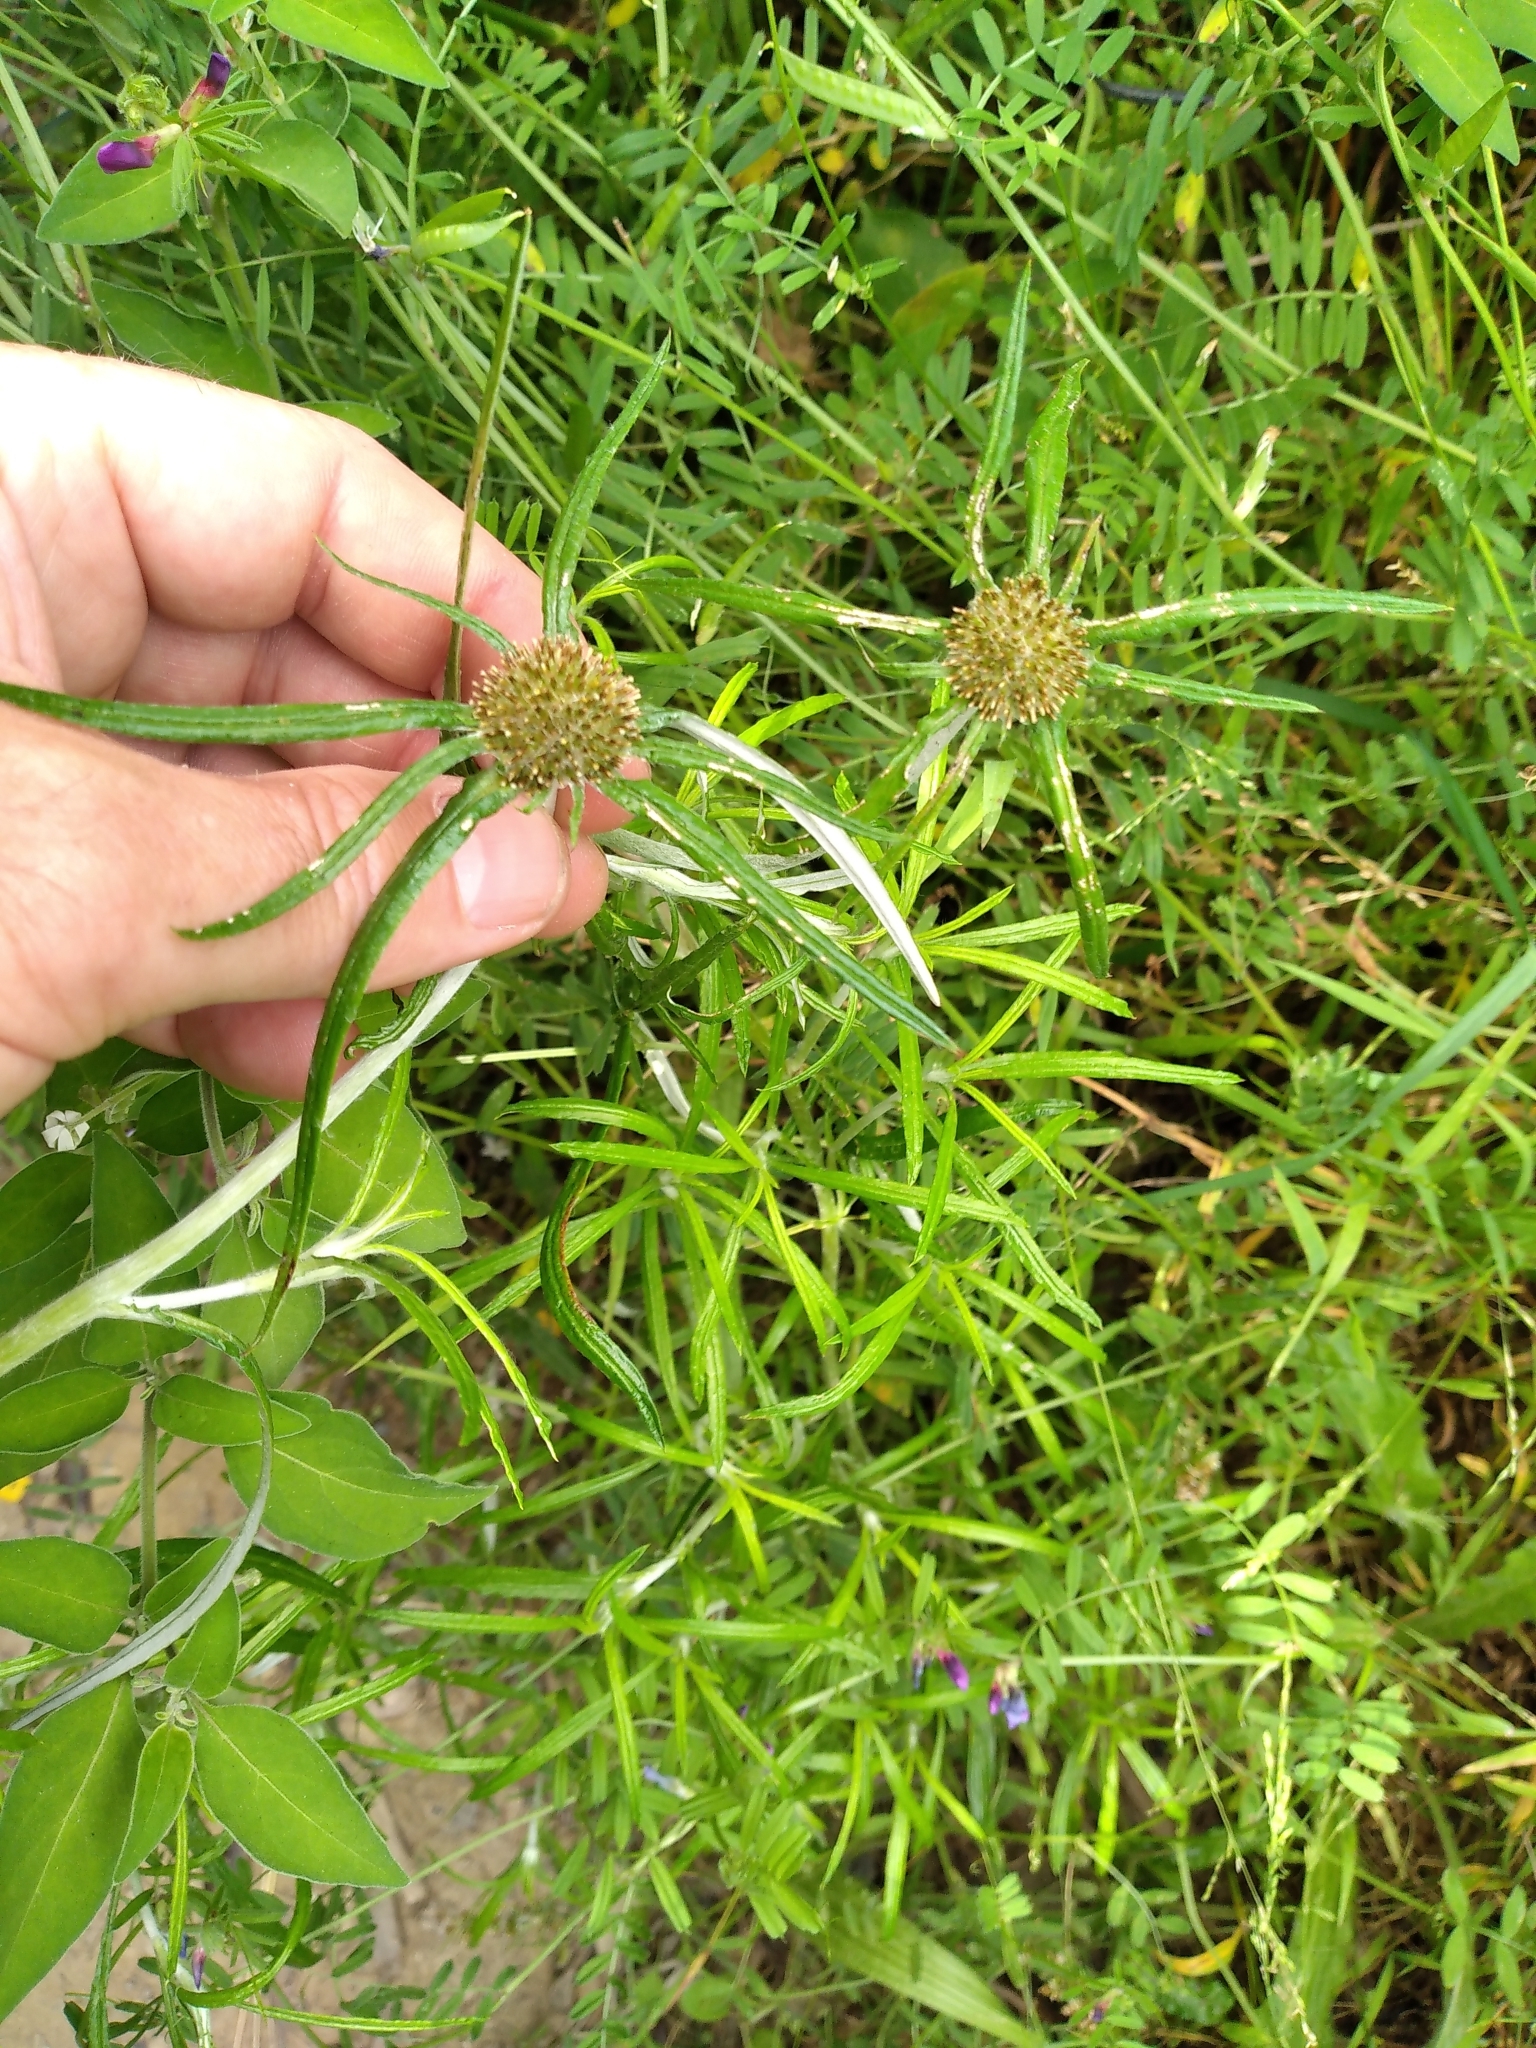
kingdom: Plantae
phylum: Tracheophyta
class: Magnoliopsida
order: Asterales
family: Asteraceae
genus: Euchiton
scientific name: Euchiton sphaericus
